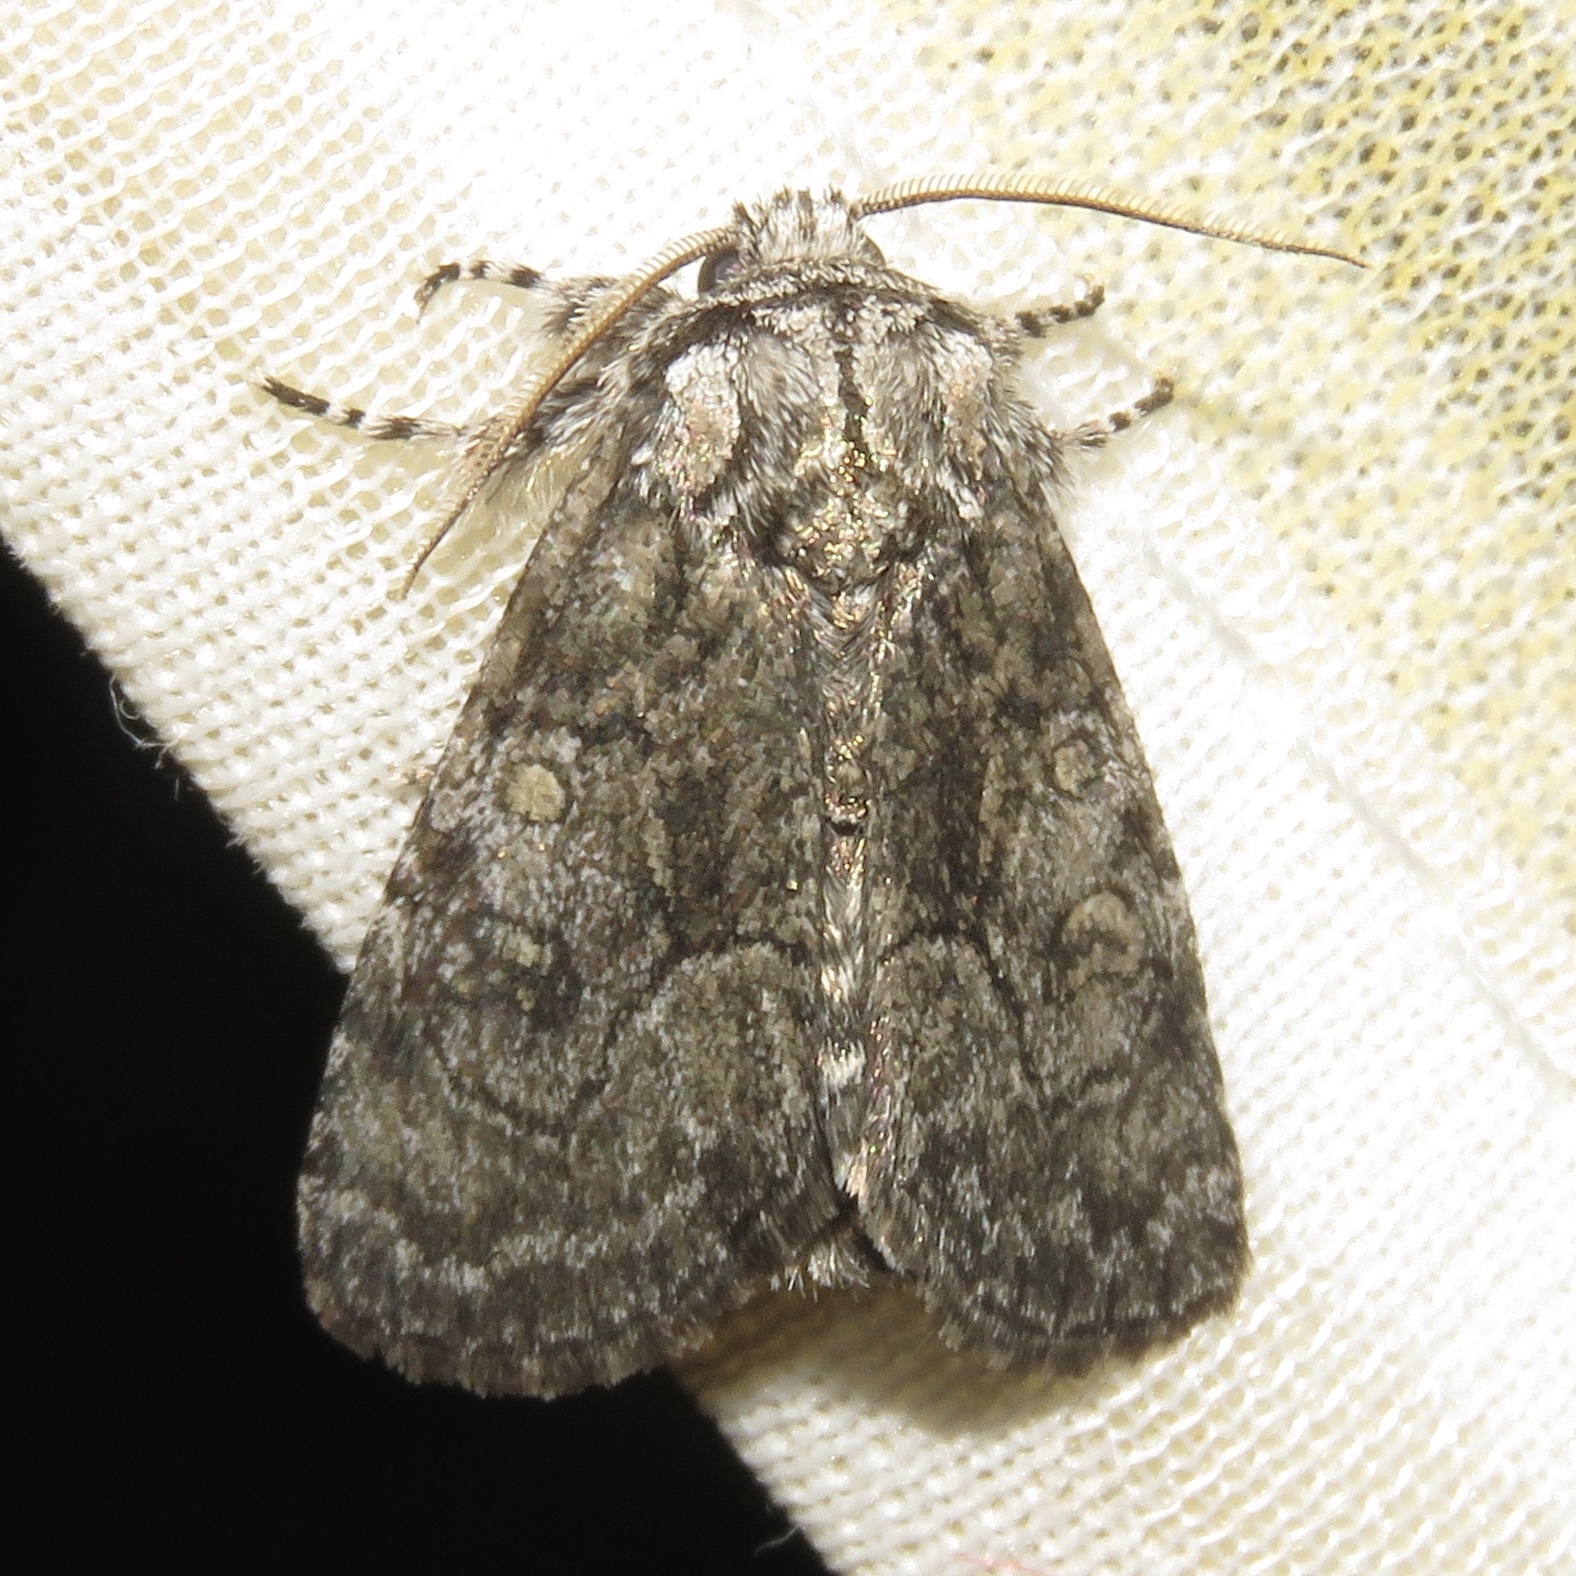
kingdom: Animalia
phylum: Arthropoda
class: Insecta
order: Lepidoptera
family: Noctuidae
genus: Raphia
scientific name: Raphia frater
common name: Brother
